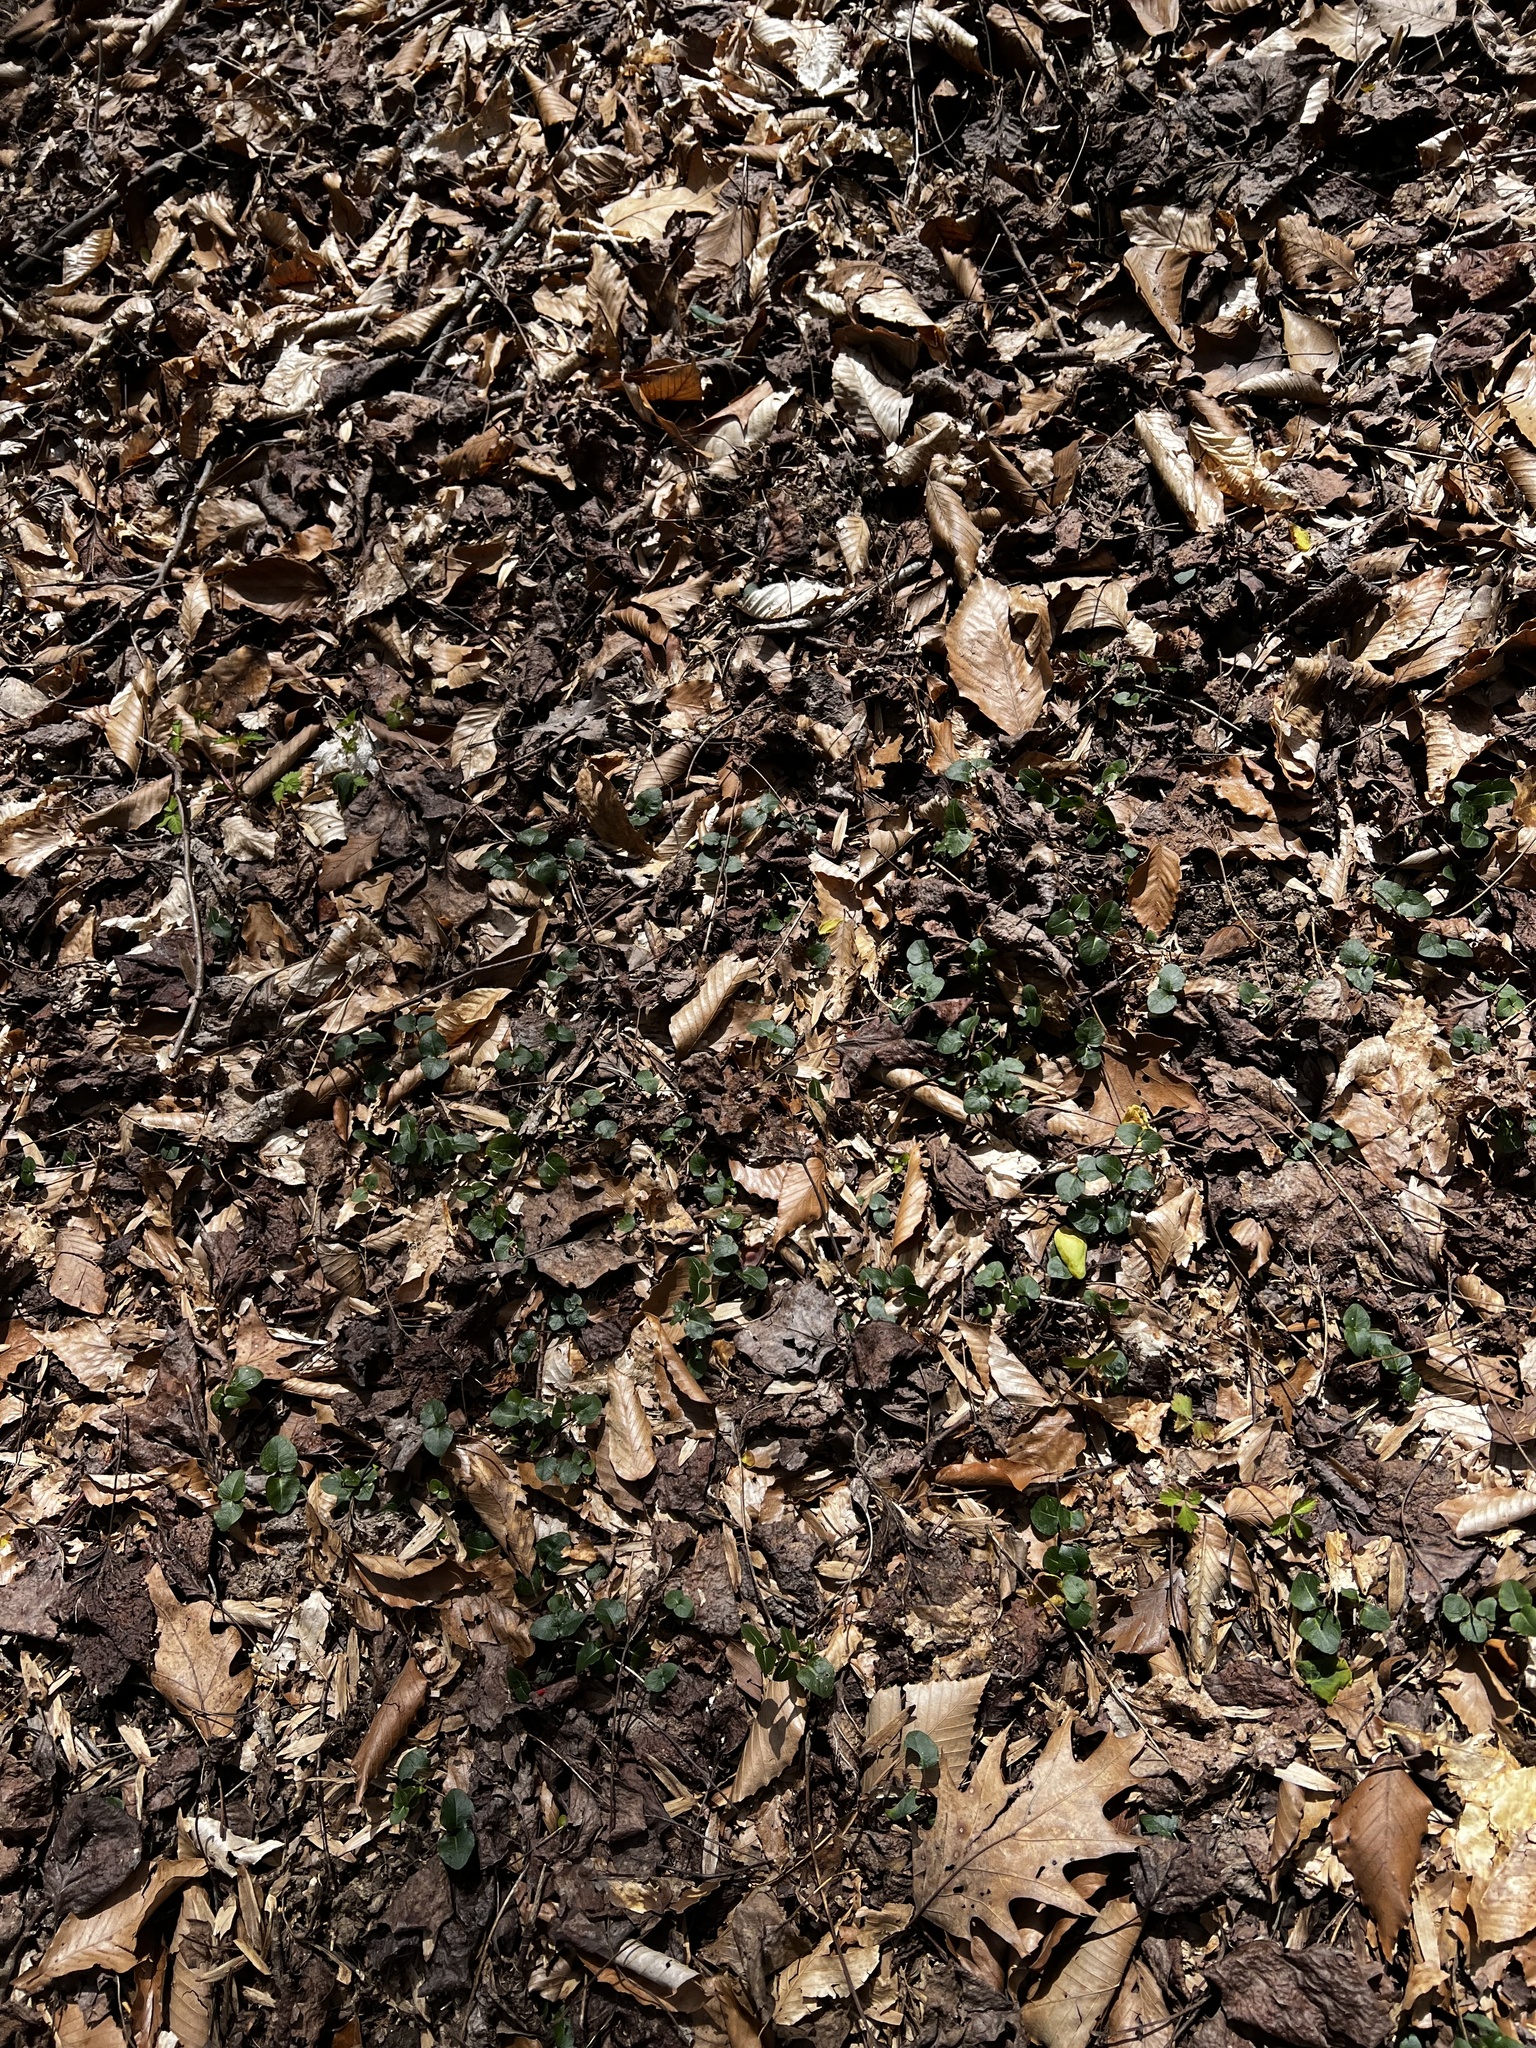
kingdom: Plantae
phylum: Tracheophyta
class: Magnoliopsida
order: Gentianales
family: Rubiaceae
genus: Mitchella
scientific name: Mitchella repens
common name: Partridge-berry
